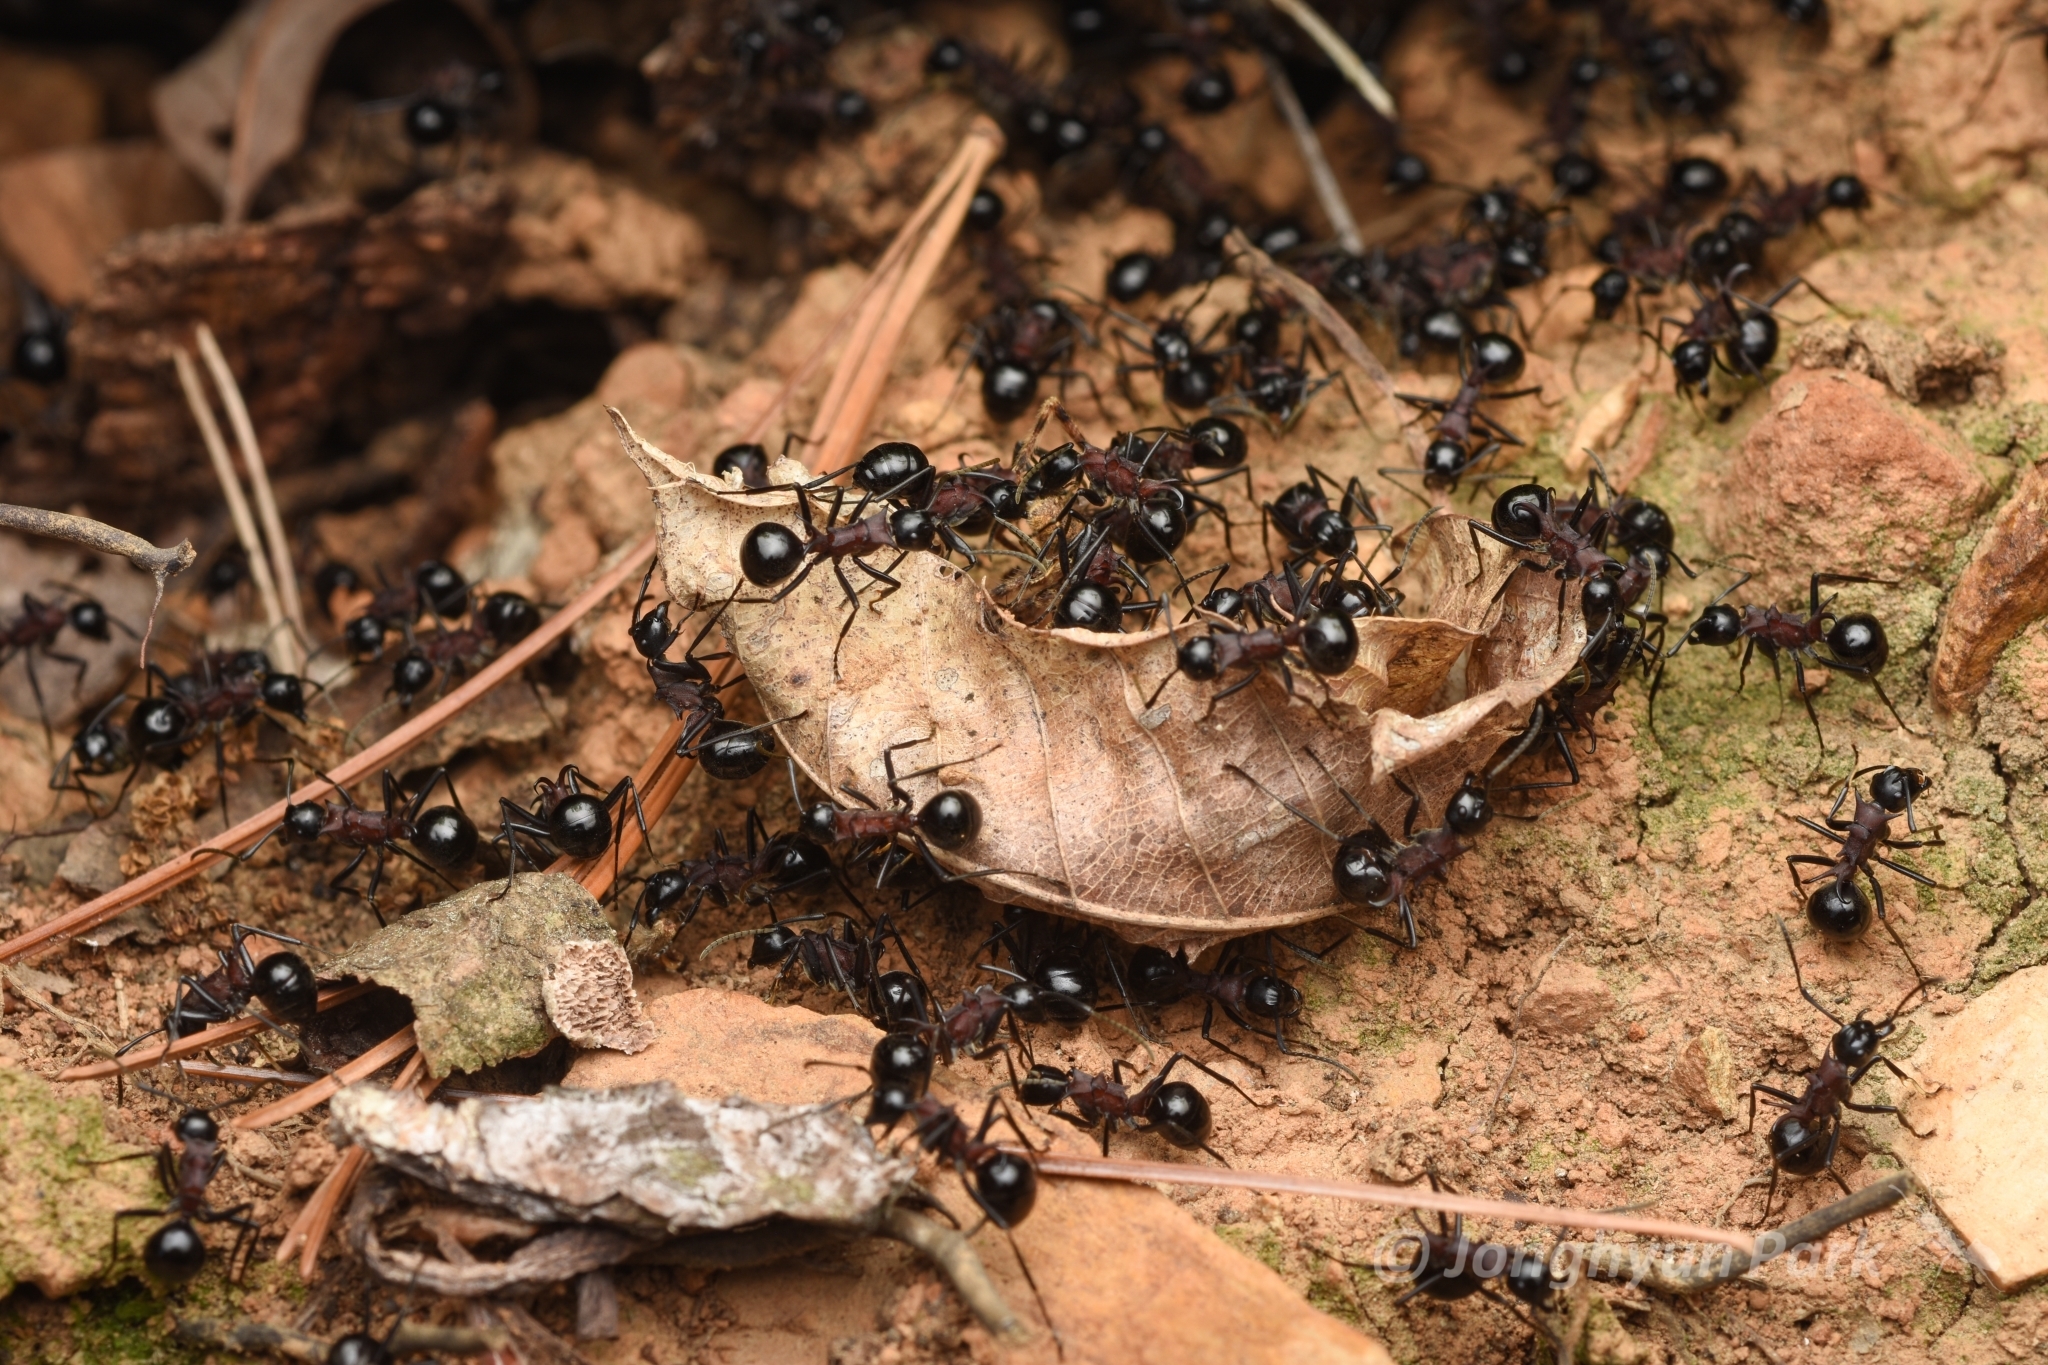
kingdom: Animalia
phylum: Arthropoda
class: Insecta
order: Hymenoptera
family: Formicidae
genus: Polyrhachis
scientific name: Polyrhachis lamellidens
